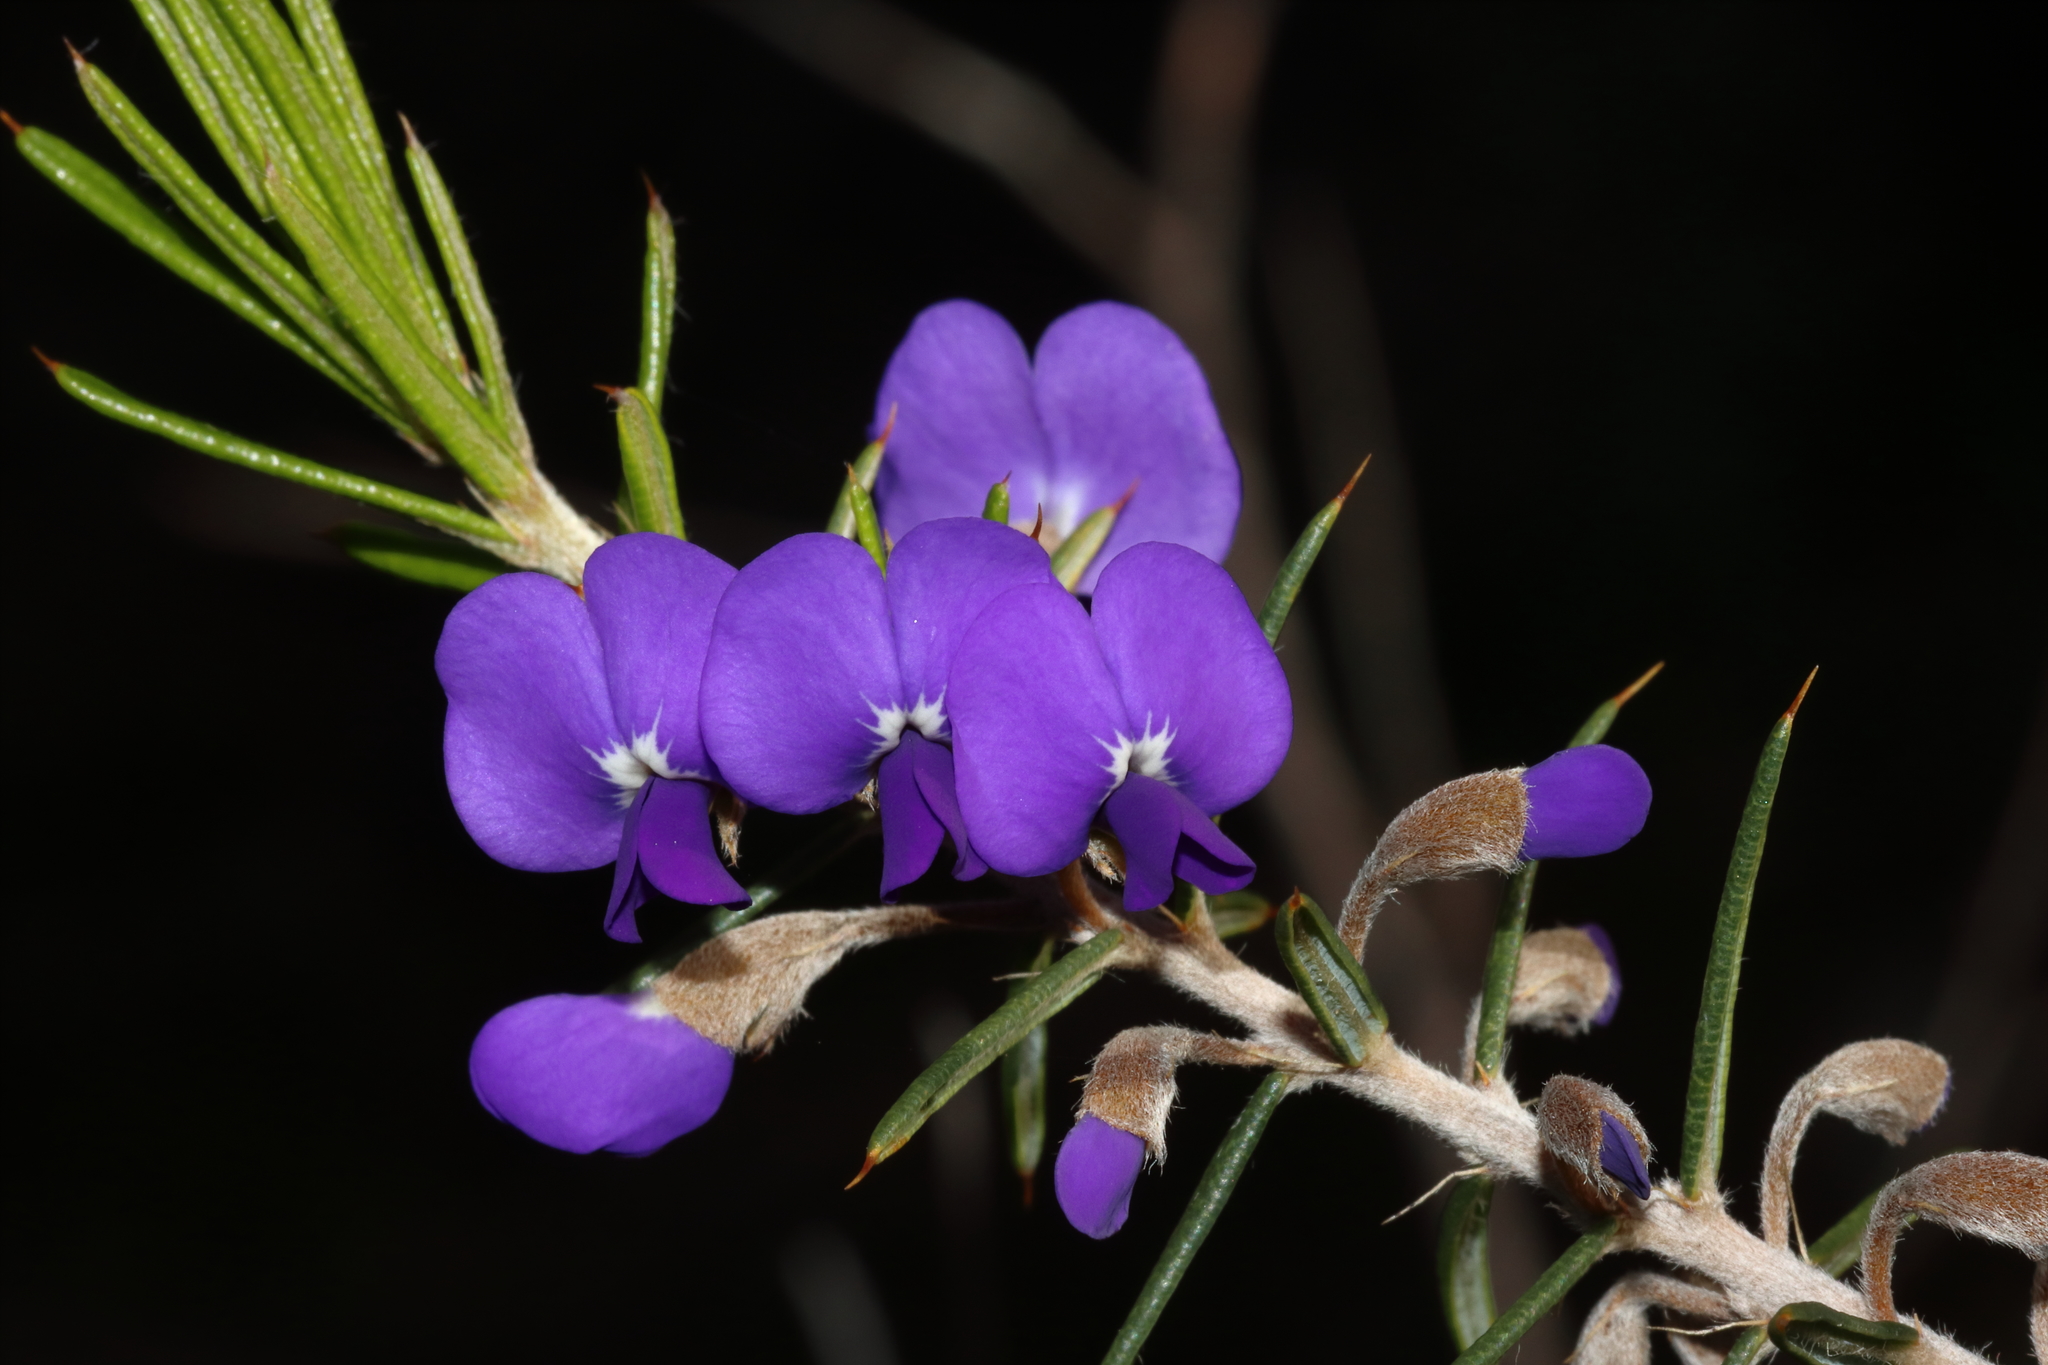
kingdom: Plantae
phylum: Tracheophyta
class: Magnoliopsida
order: Fabales
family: Fabaceae
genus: Hovea
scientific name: Hovea pungens
